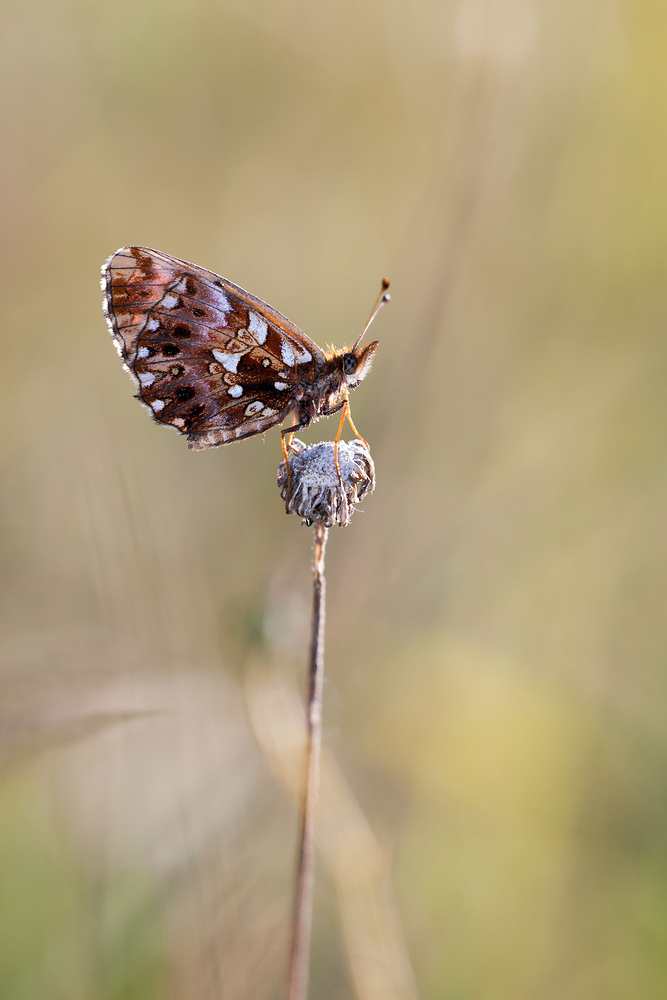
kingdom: Animalia
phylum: Arthropoda
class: Insecta
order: Lepidoptera
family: Nymphalidae
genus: Boloria
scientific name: Boloria dia
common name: Weaver's fritillary
